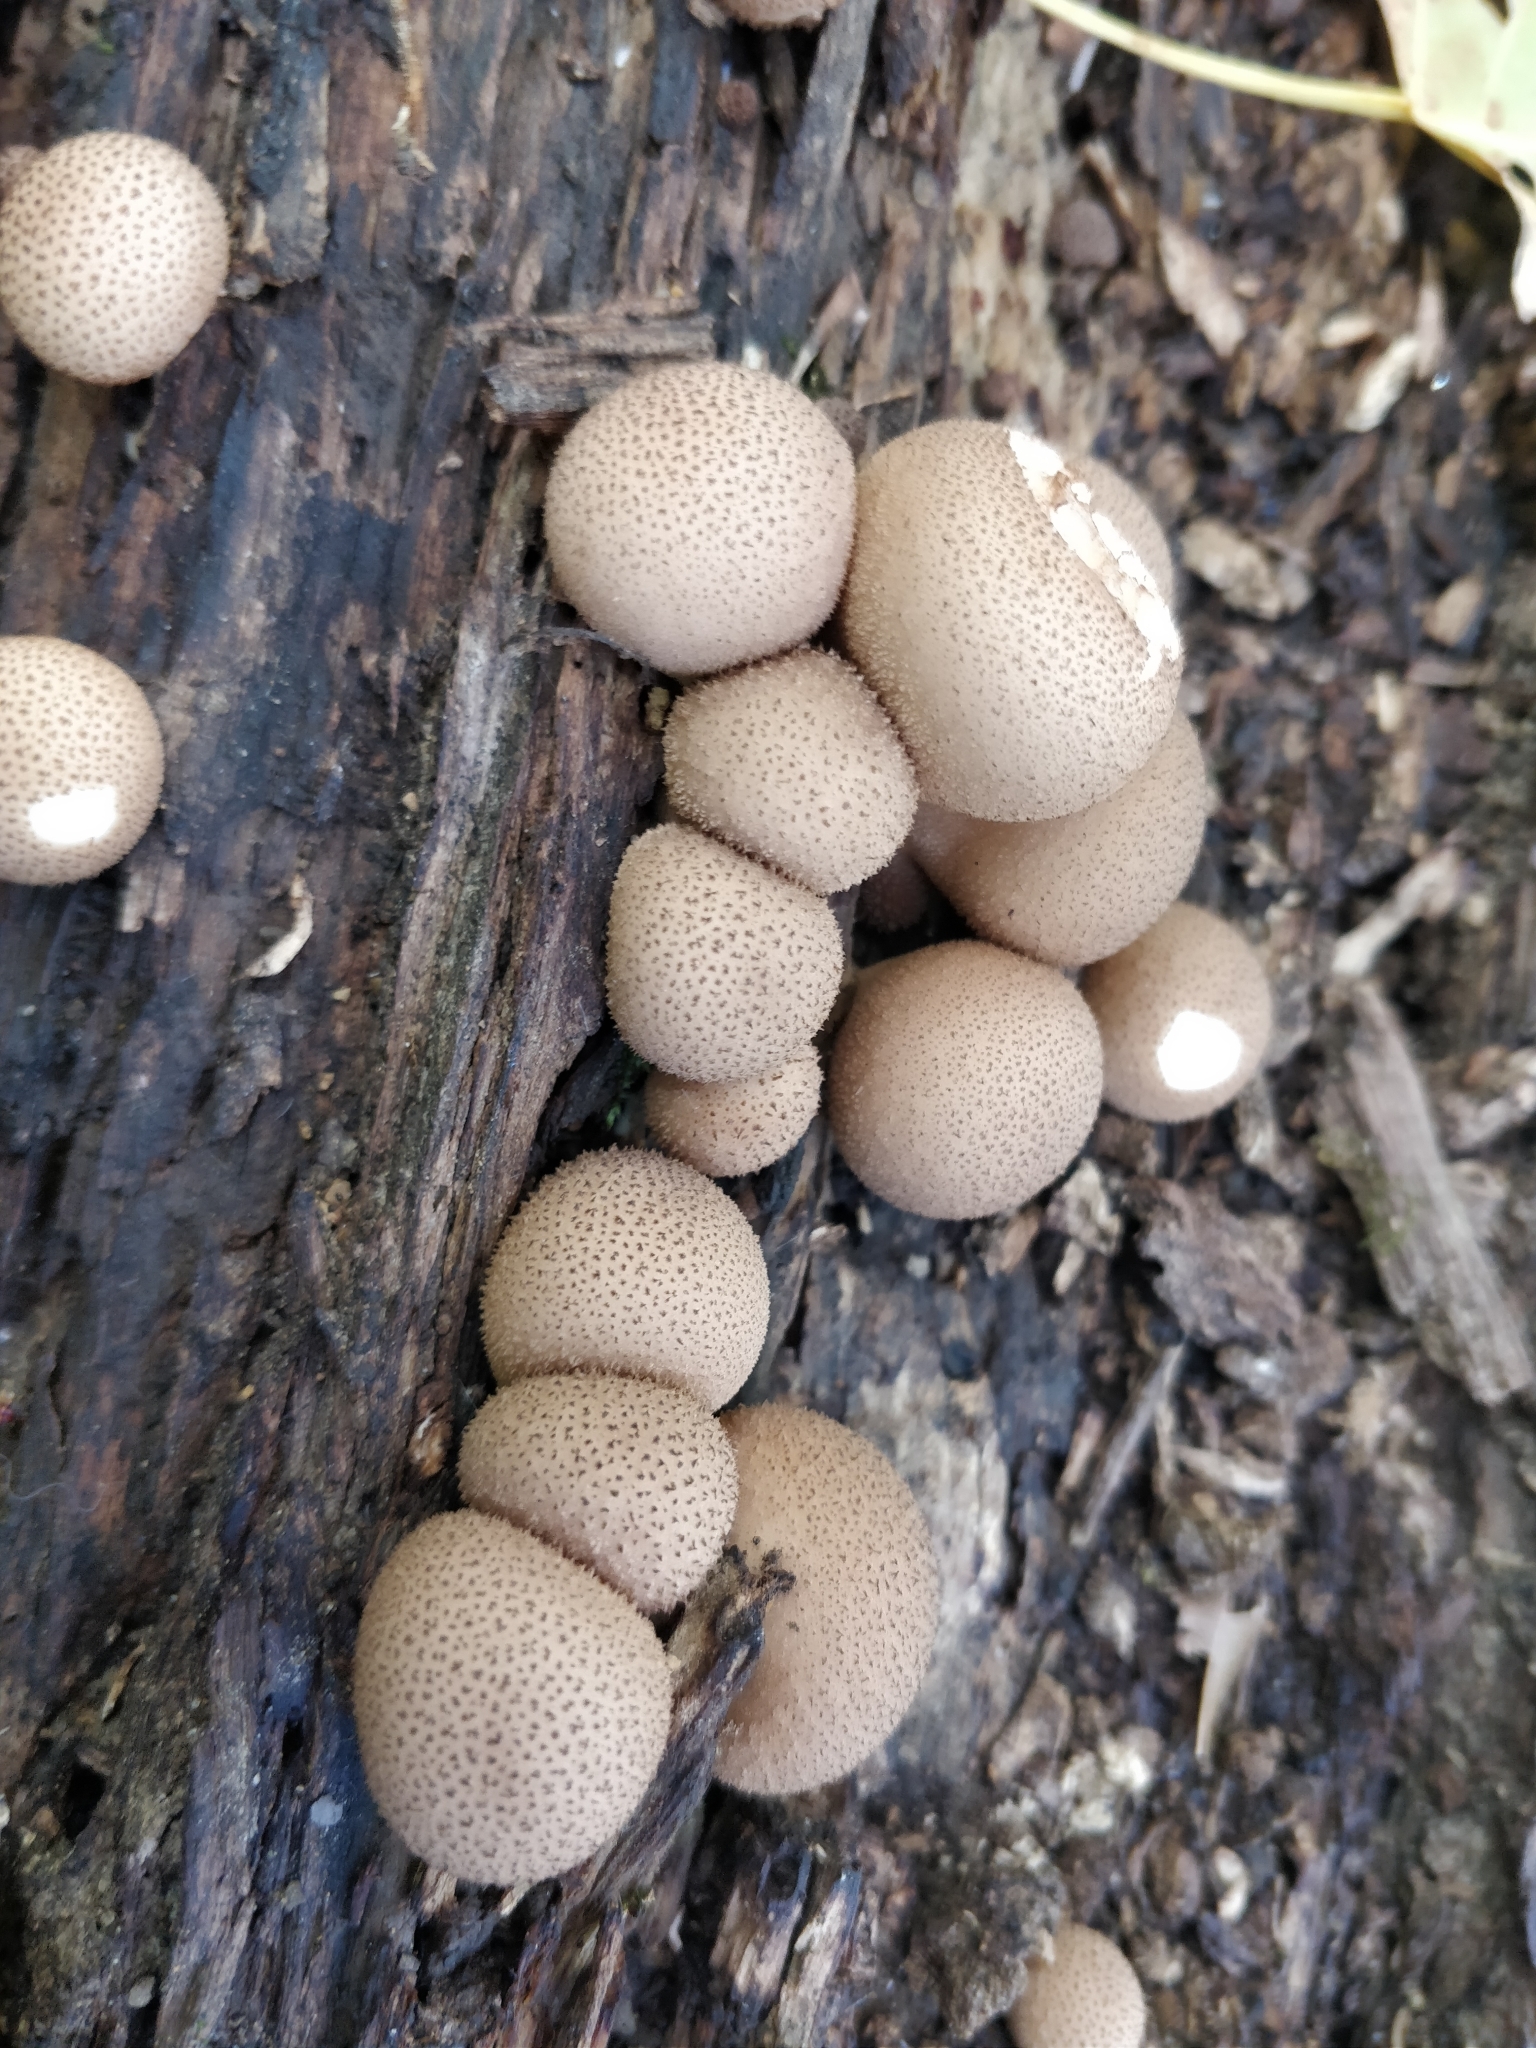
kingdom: Fungi
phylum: Basidiomycota
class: Agaricomycetes
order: Agaricales
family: Lycoperdaceae
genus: Apioperdon
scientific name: Apioperdon pyriforme
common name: Pear-shaped puffball
